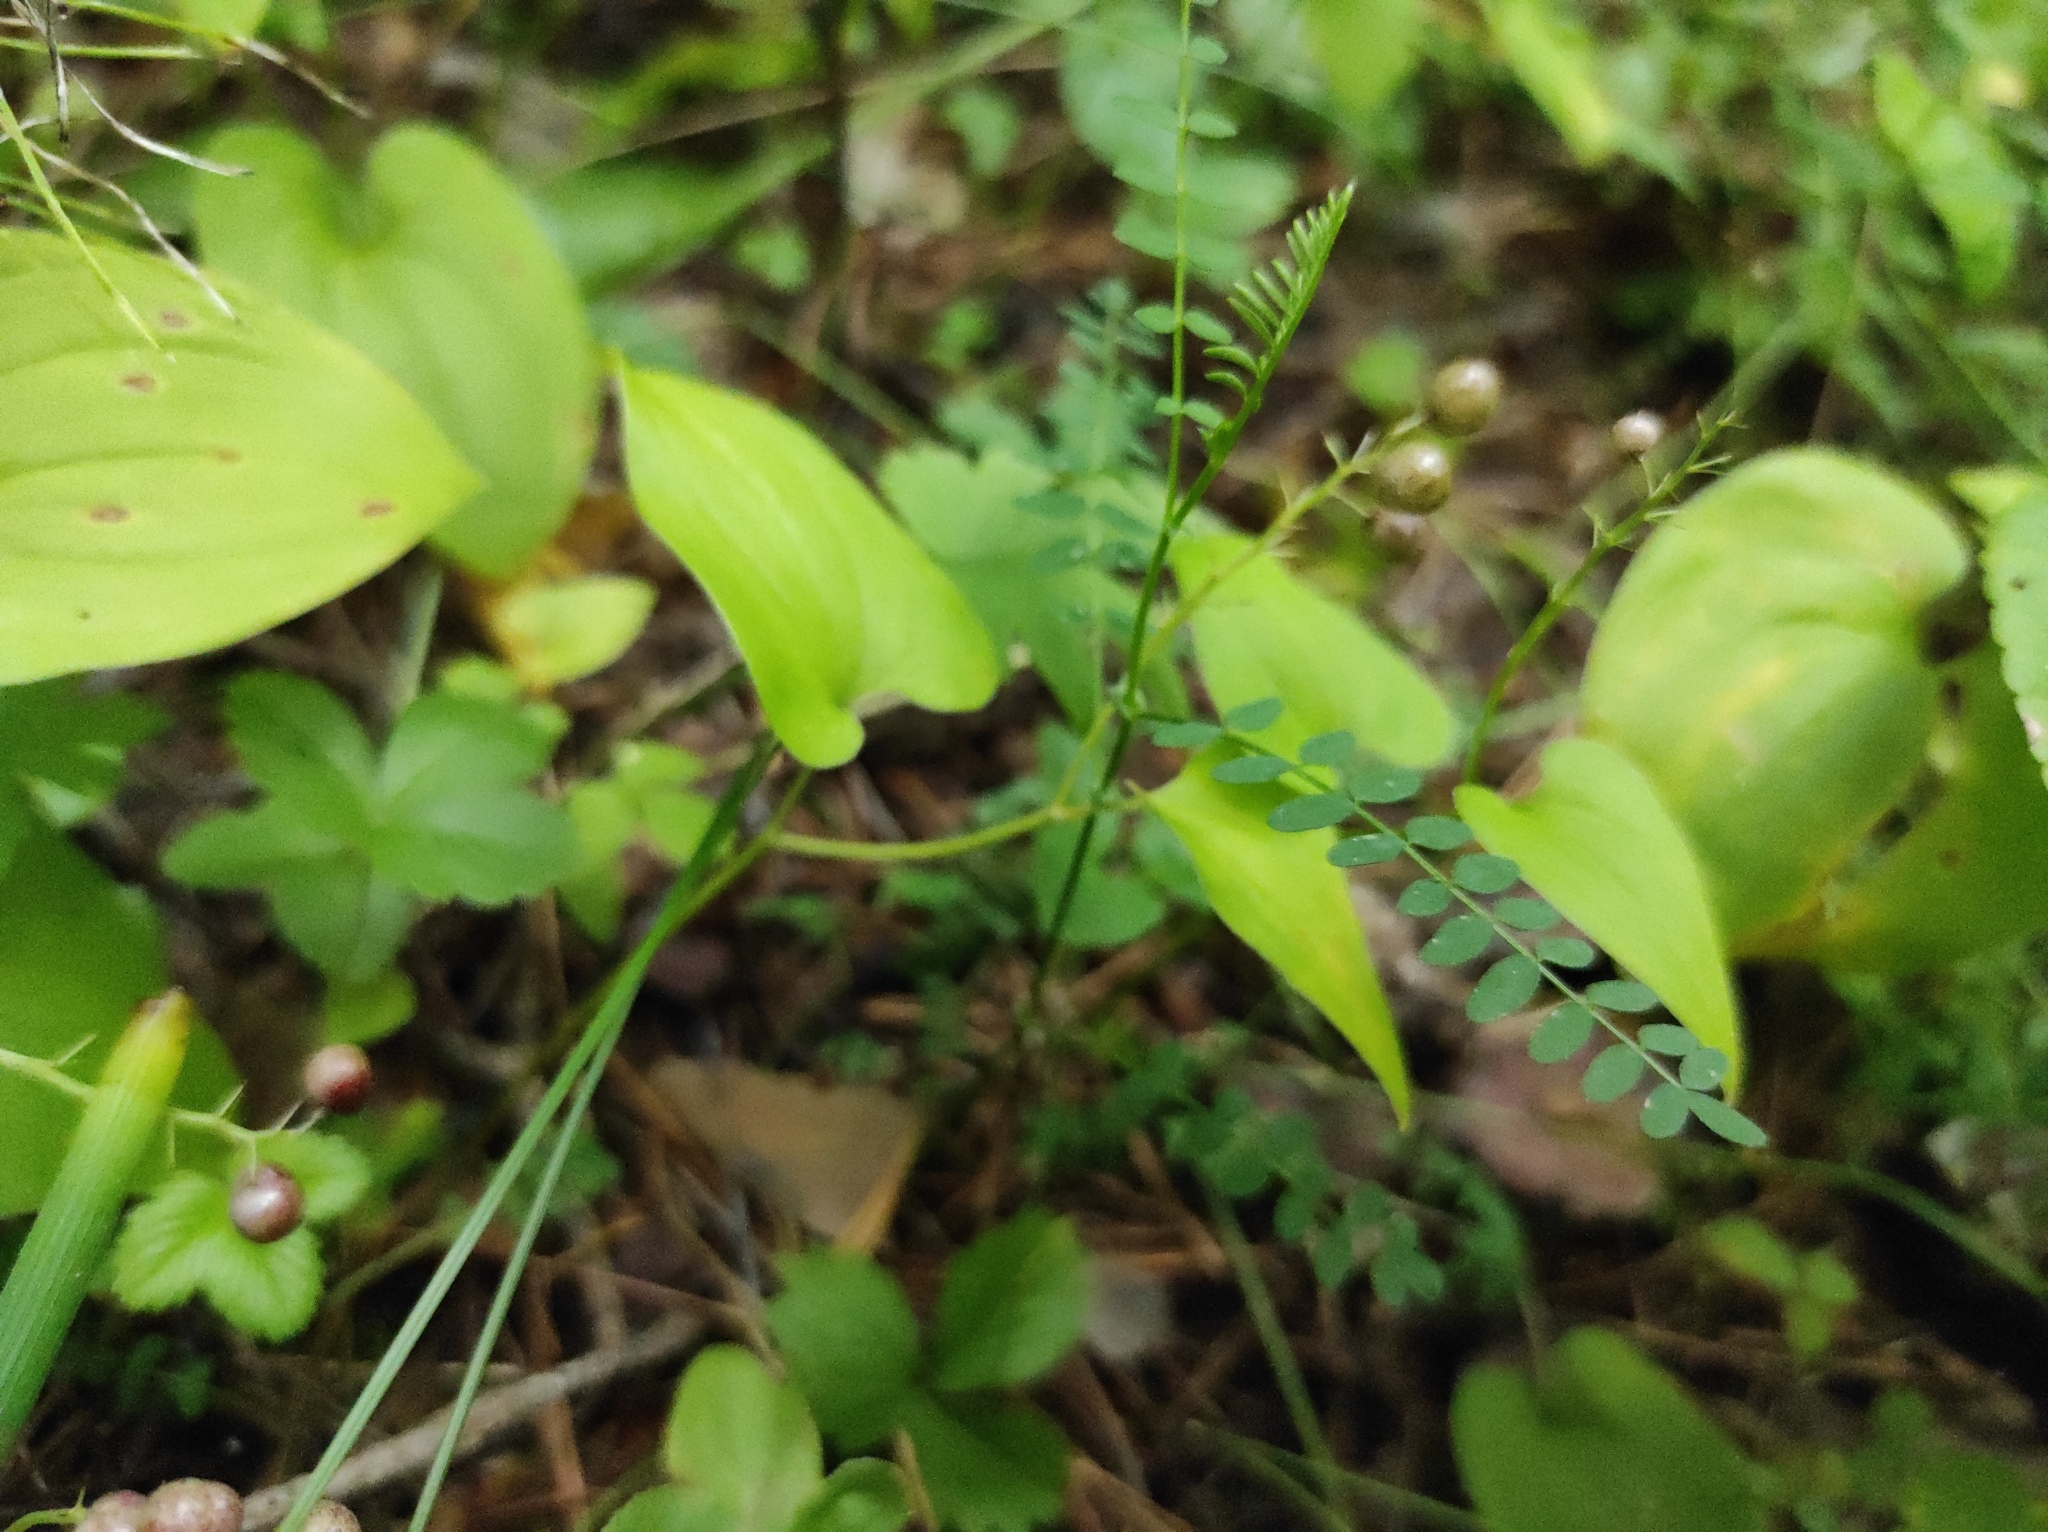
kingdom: Plantae
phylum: Tracheophyta
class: Liliopsida
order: Asparagales
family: Asparagaceae
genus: Maianthemum
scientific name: Maianthemum bifolium
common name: May lily
